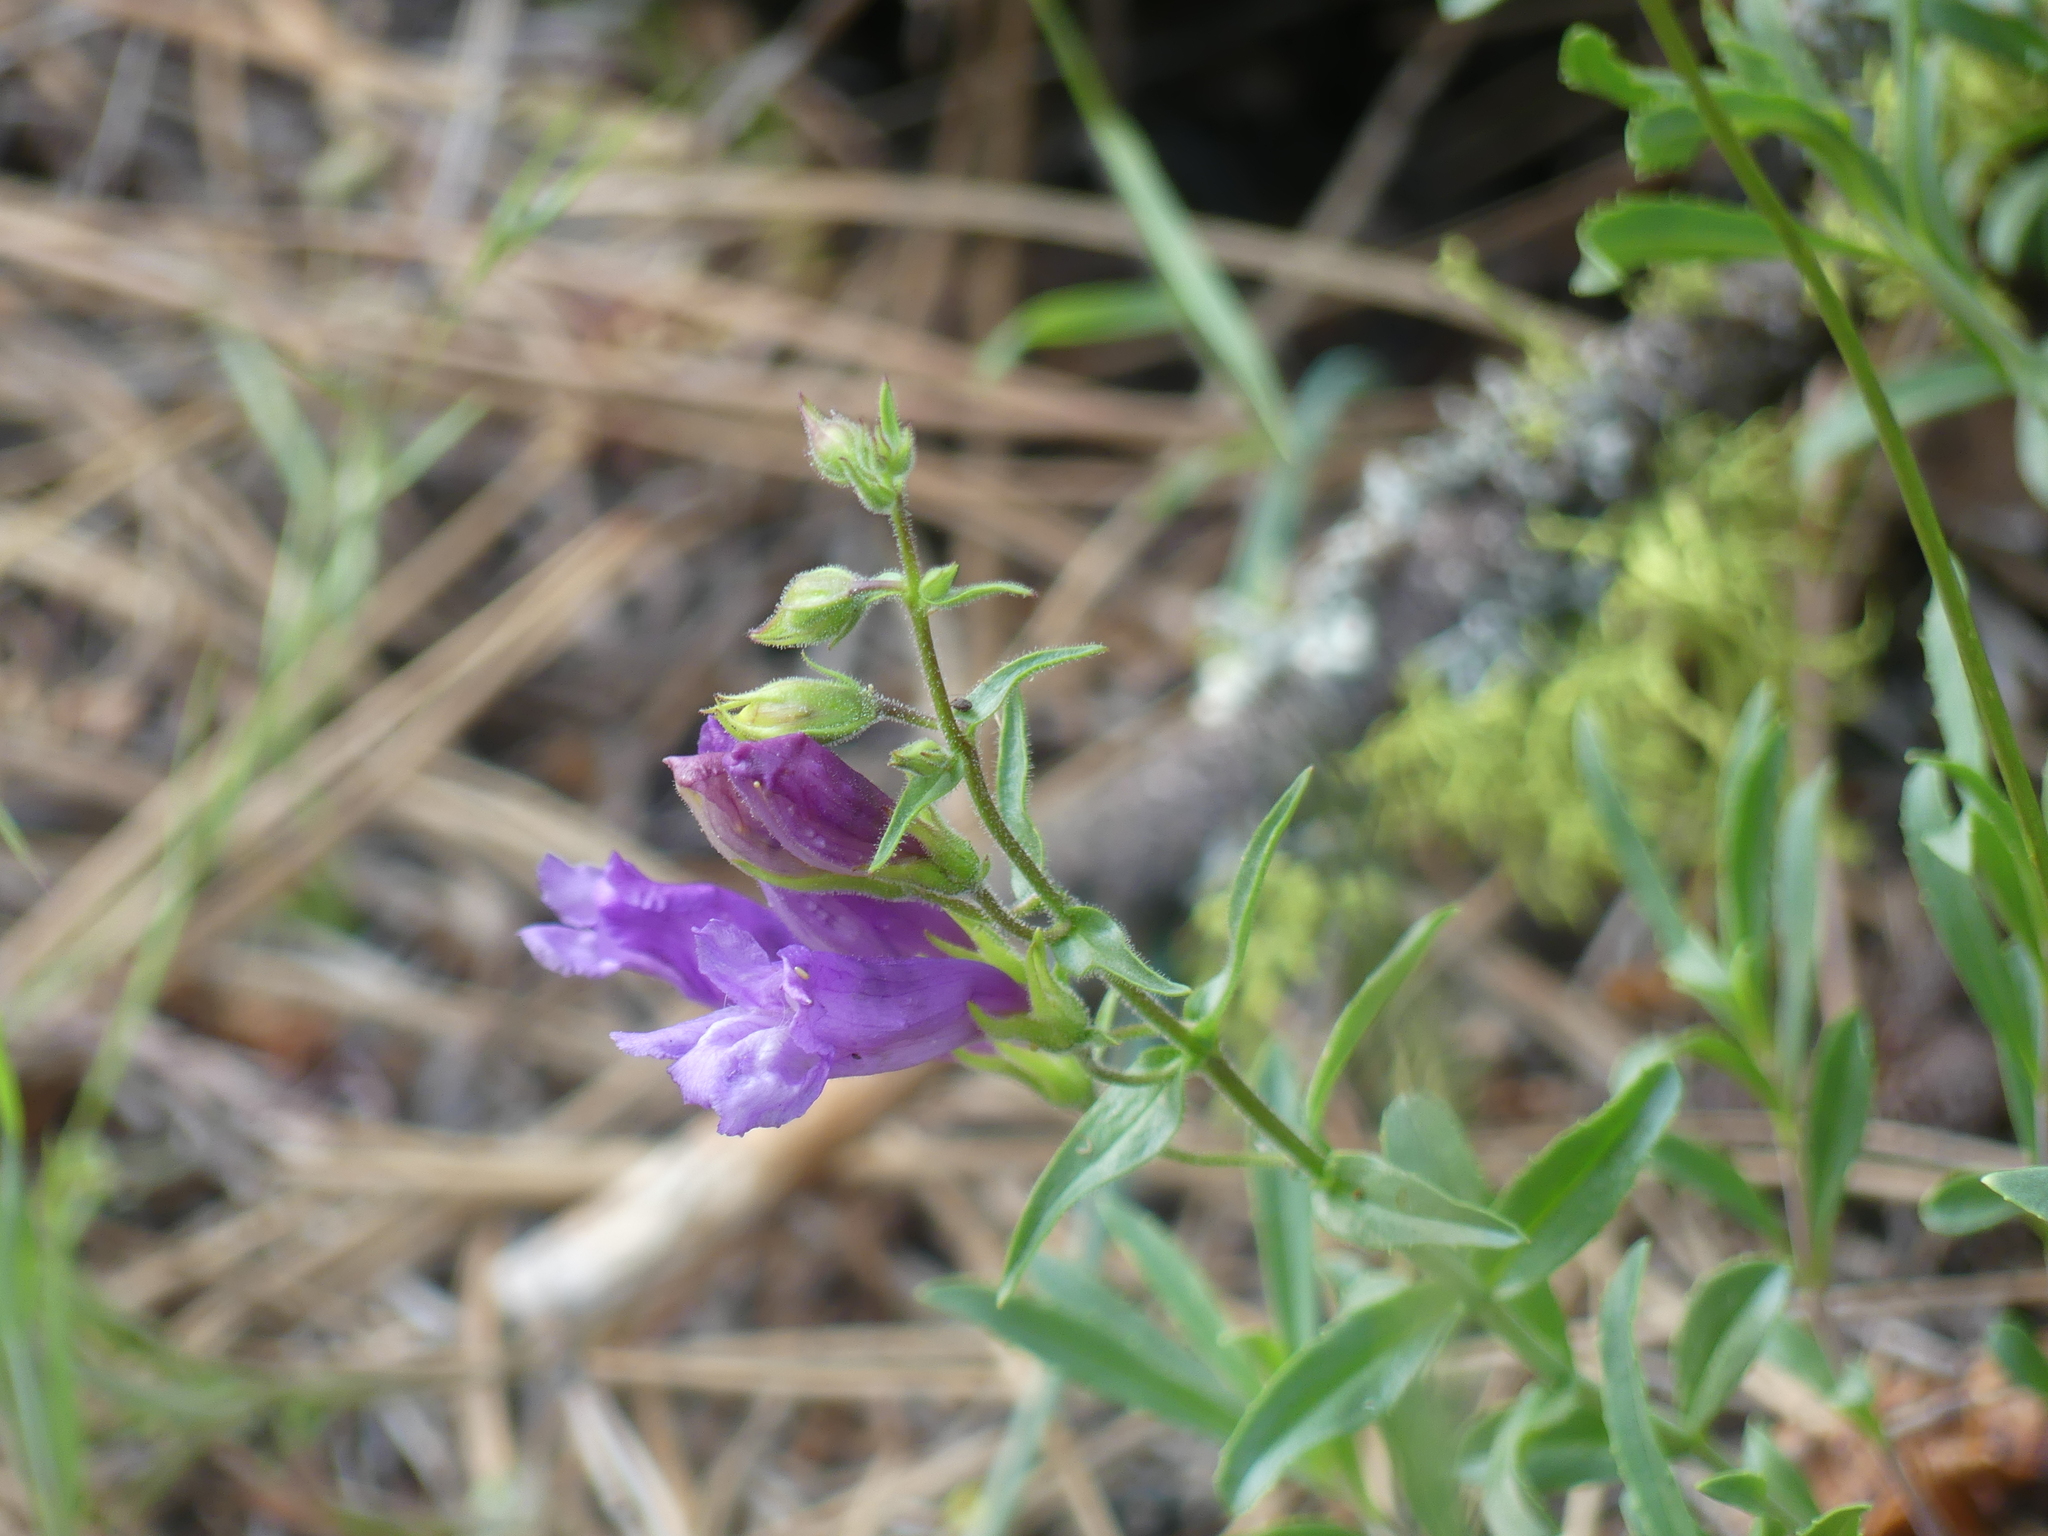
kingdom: Plantae
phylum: Tracheophyta
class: Magnoliopsida
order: Lamiales
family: Plantaginaceae
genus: Penstemon
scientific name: Penstemon fruticosus
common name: Bush penstemon
